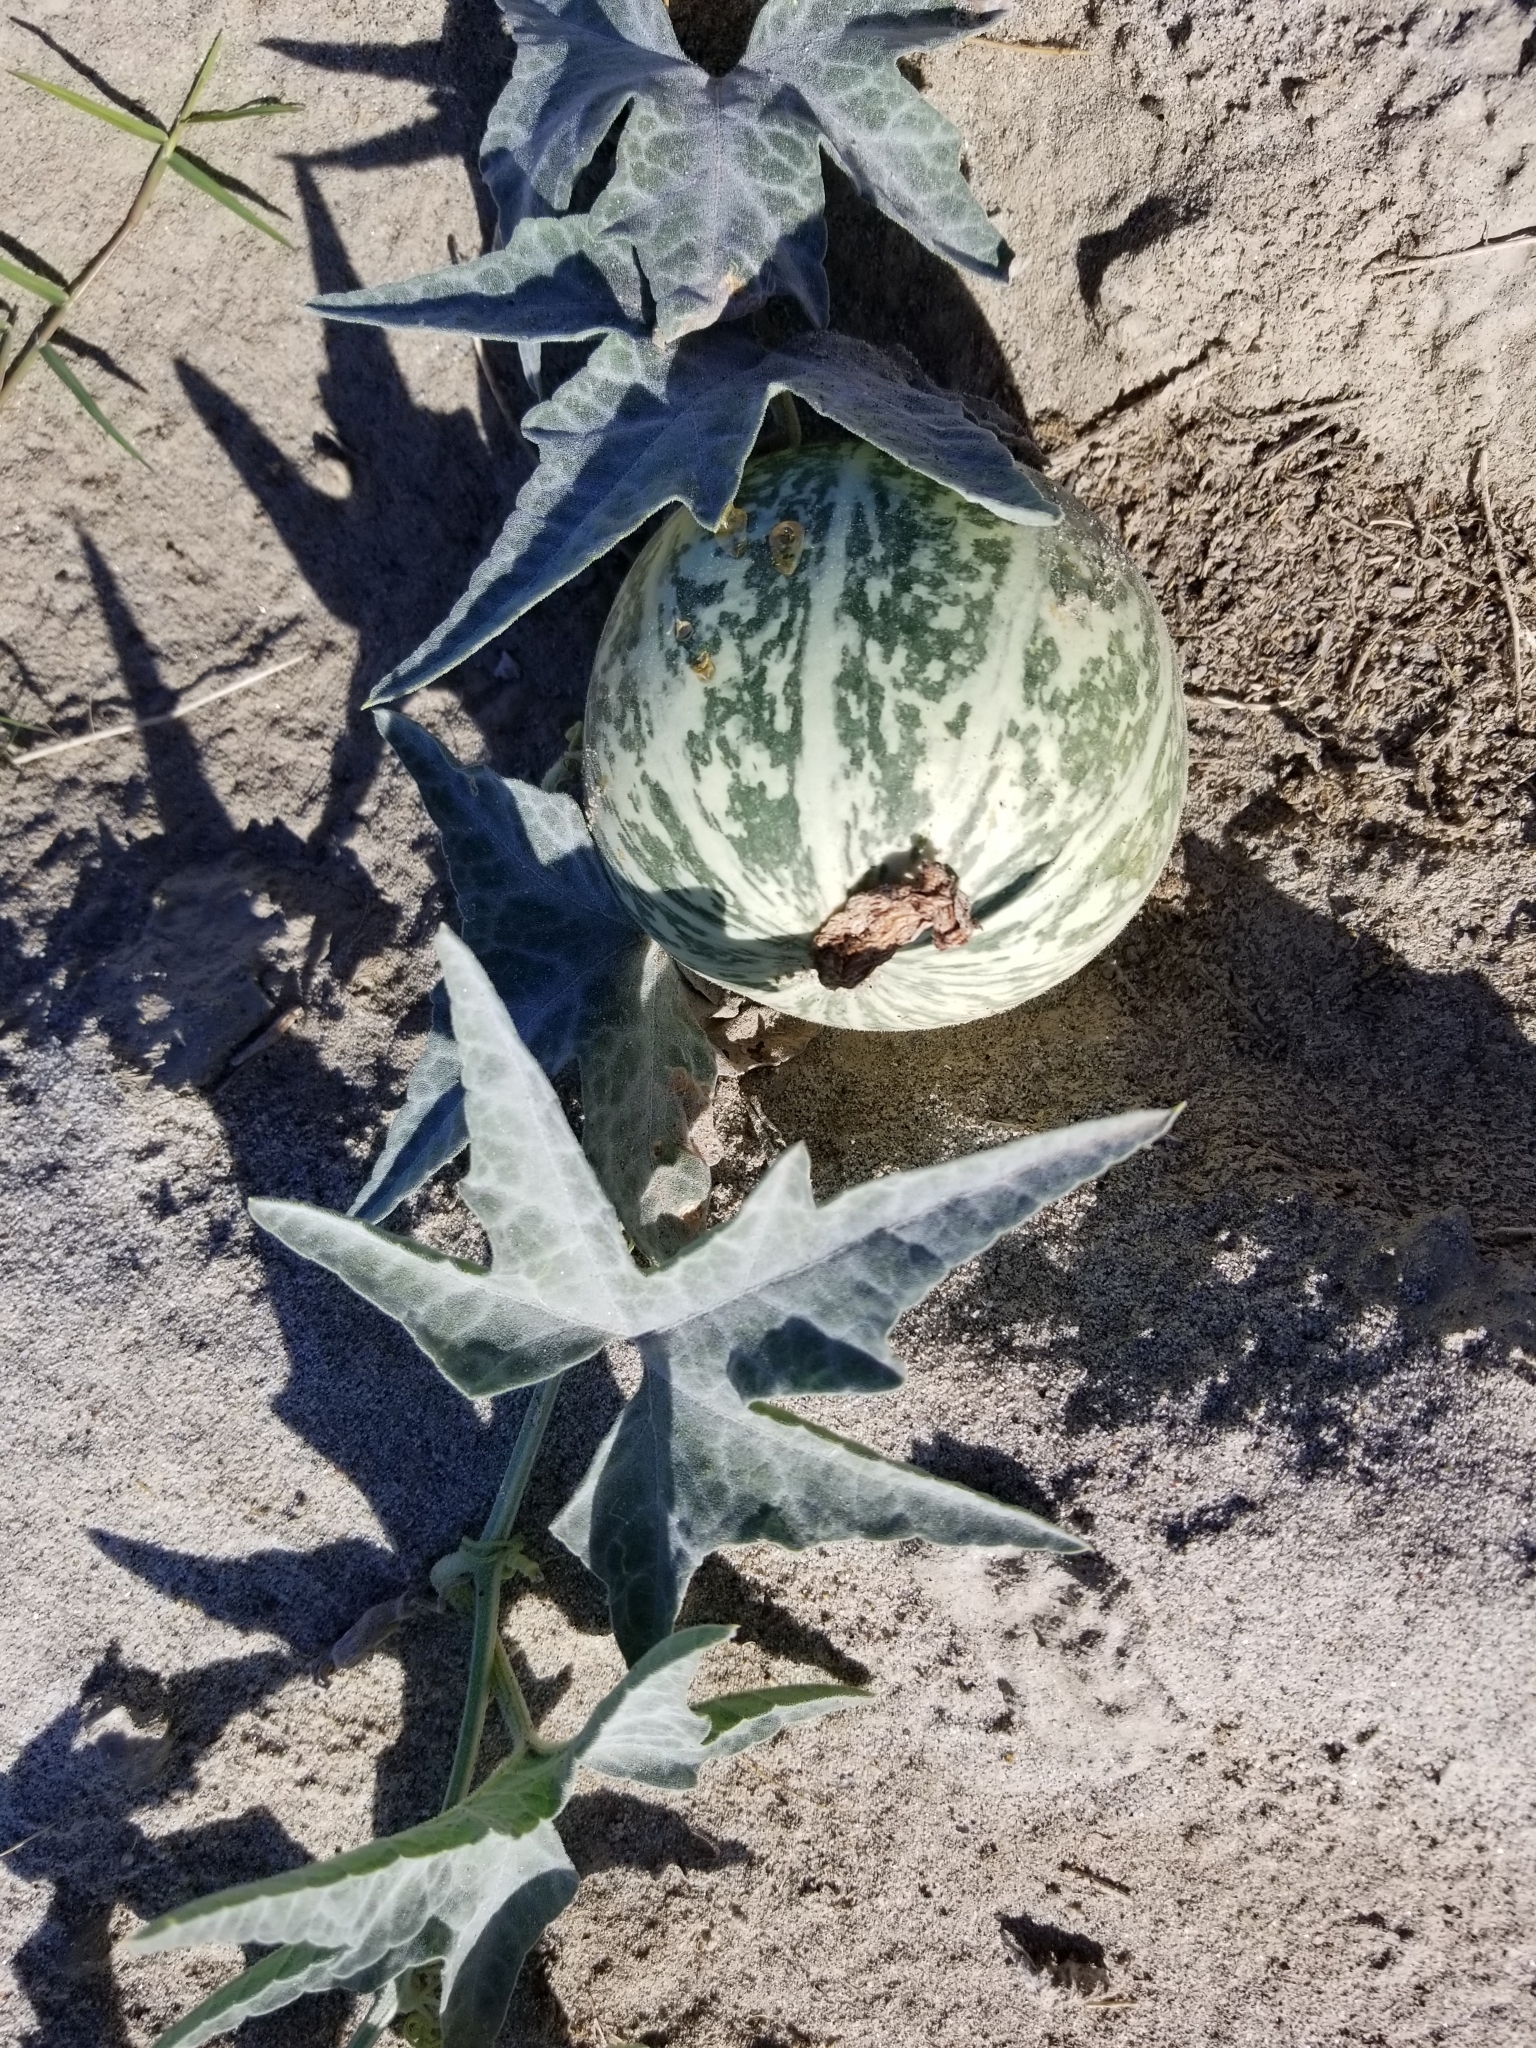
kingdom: Plantae
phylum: Tracheophyta
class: Magnoliopsida
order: Cucurbitales
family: Cucurbitaceae
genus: Cucurbita
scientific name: Cucurbita palmata
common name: Coyote-melon
